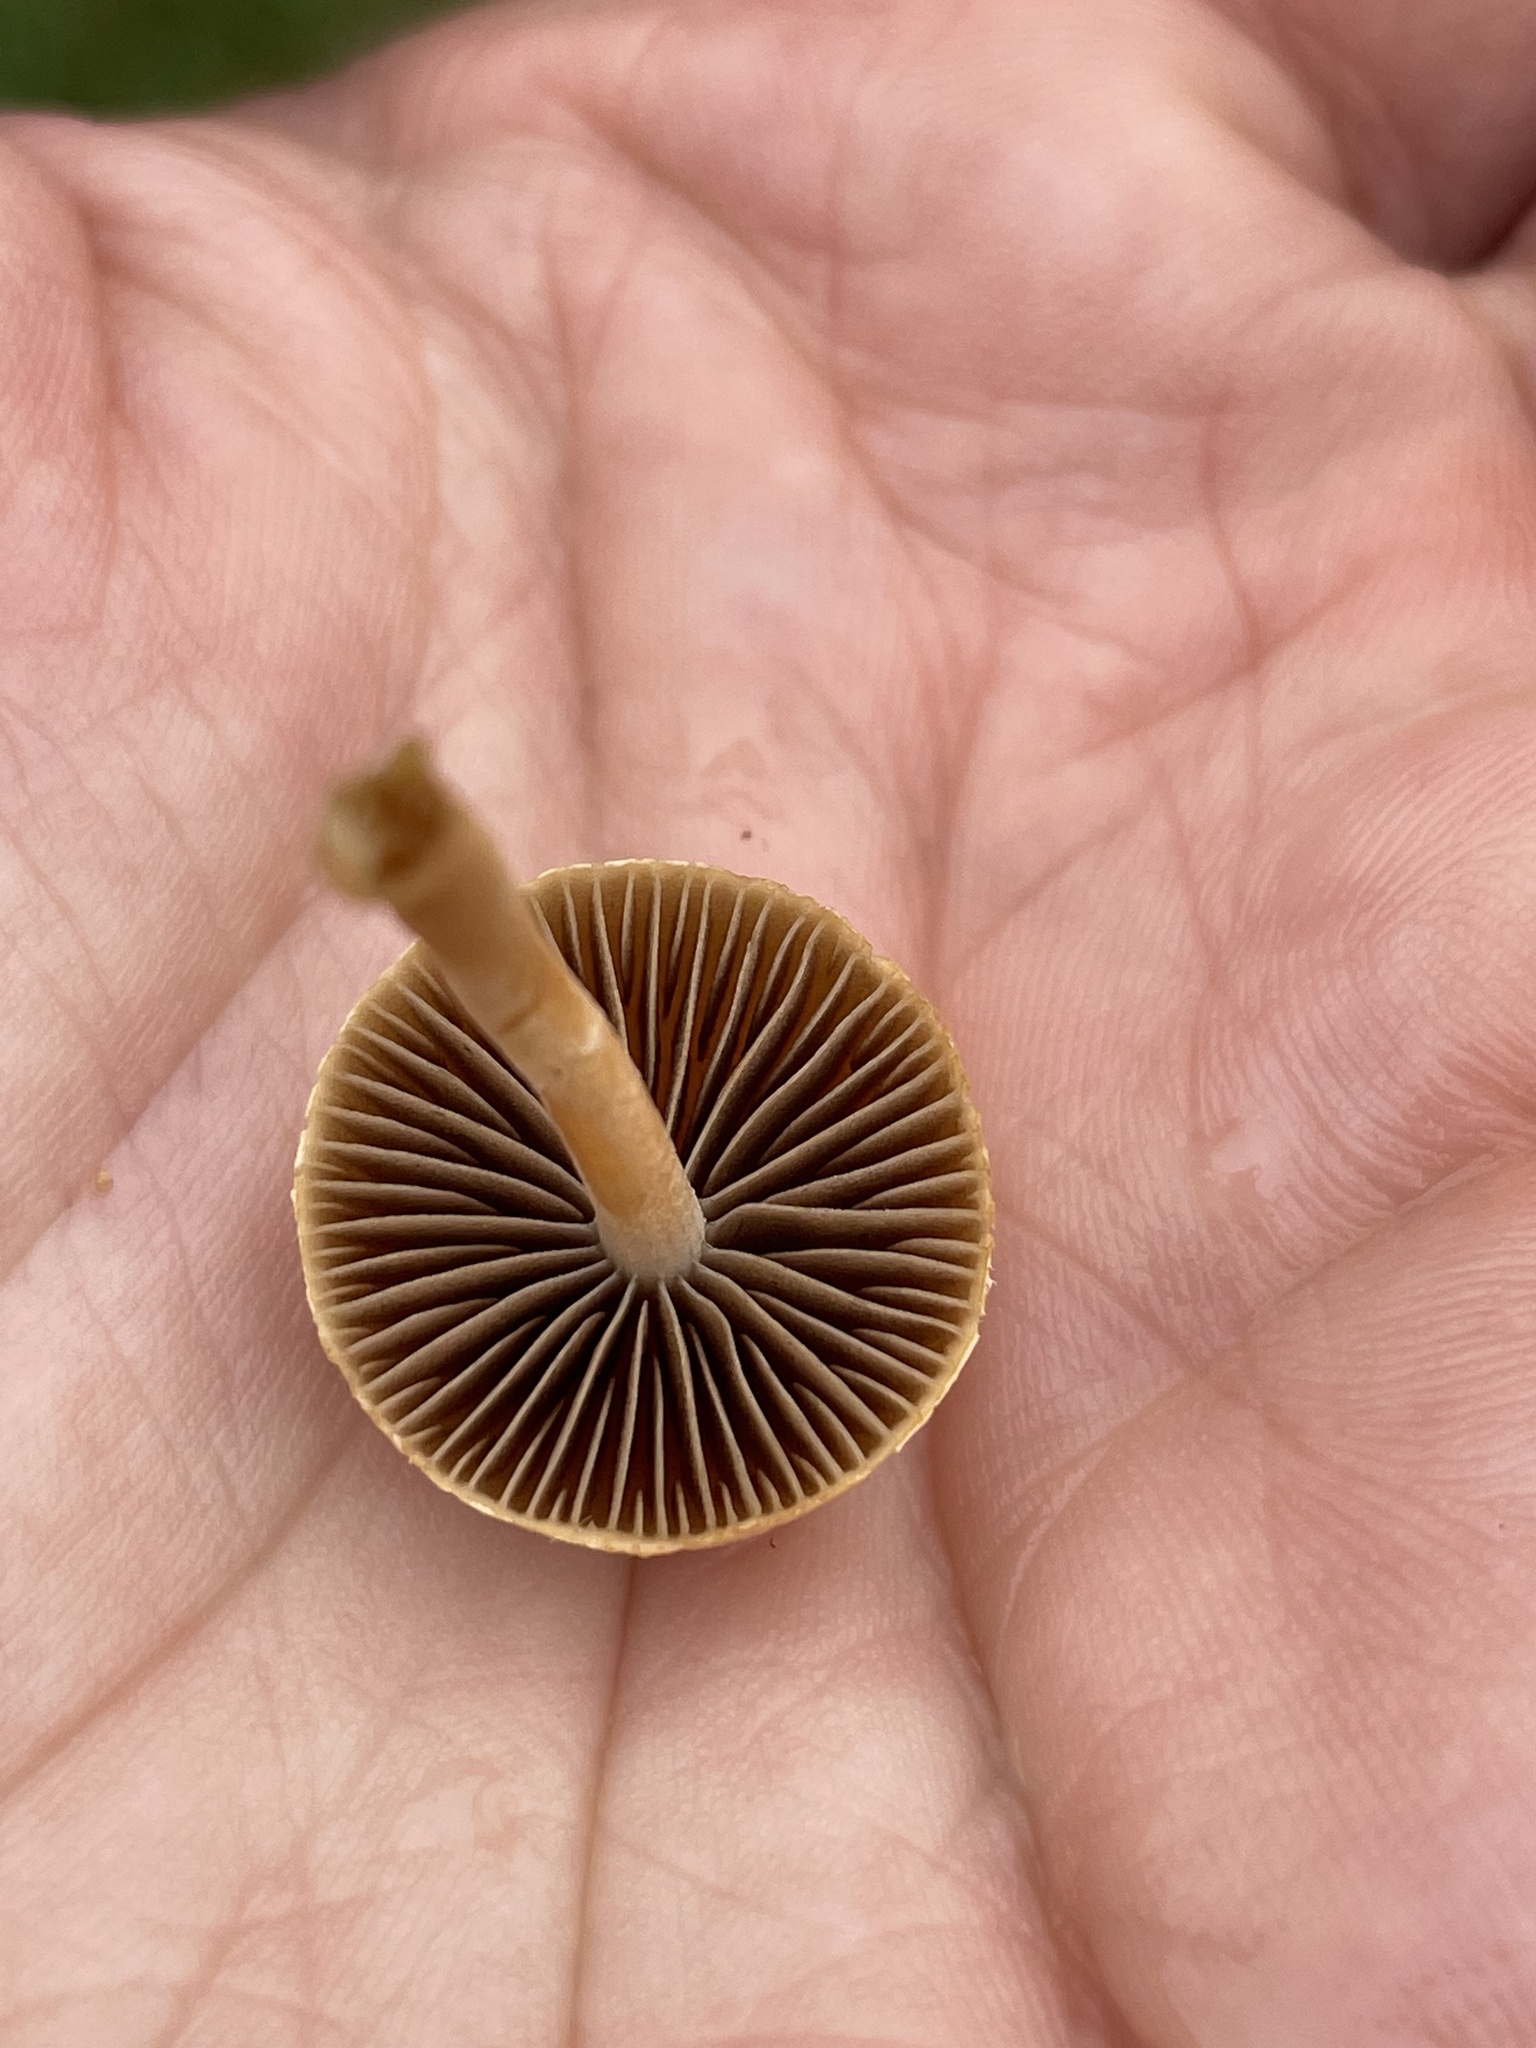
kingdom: Fungi
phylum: Basidiomycota
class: Agaricomycetes
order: Agaricales
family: Strophariaceae
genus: Agrocybe
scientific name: Agrocybe pediades
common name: Common fieldcap
